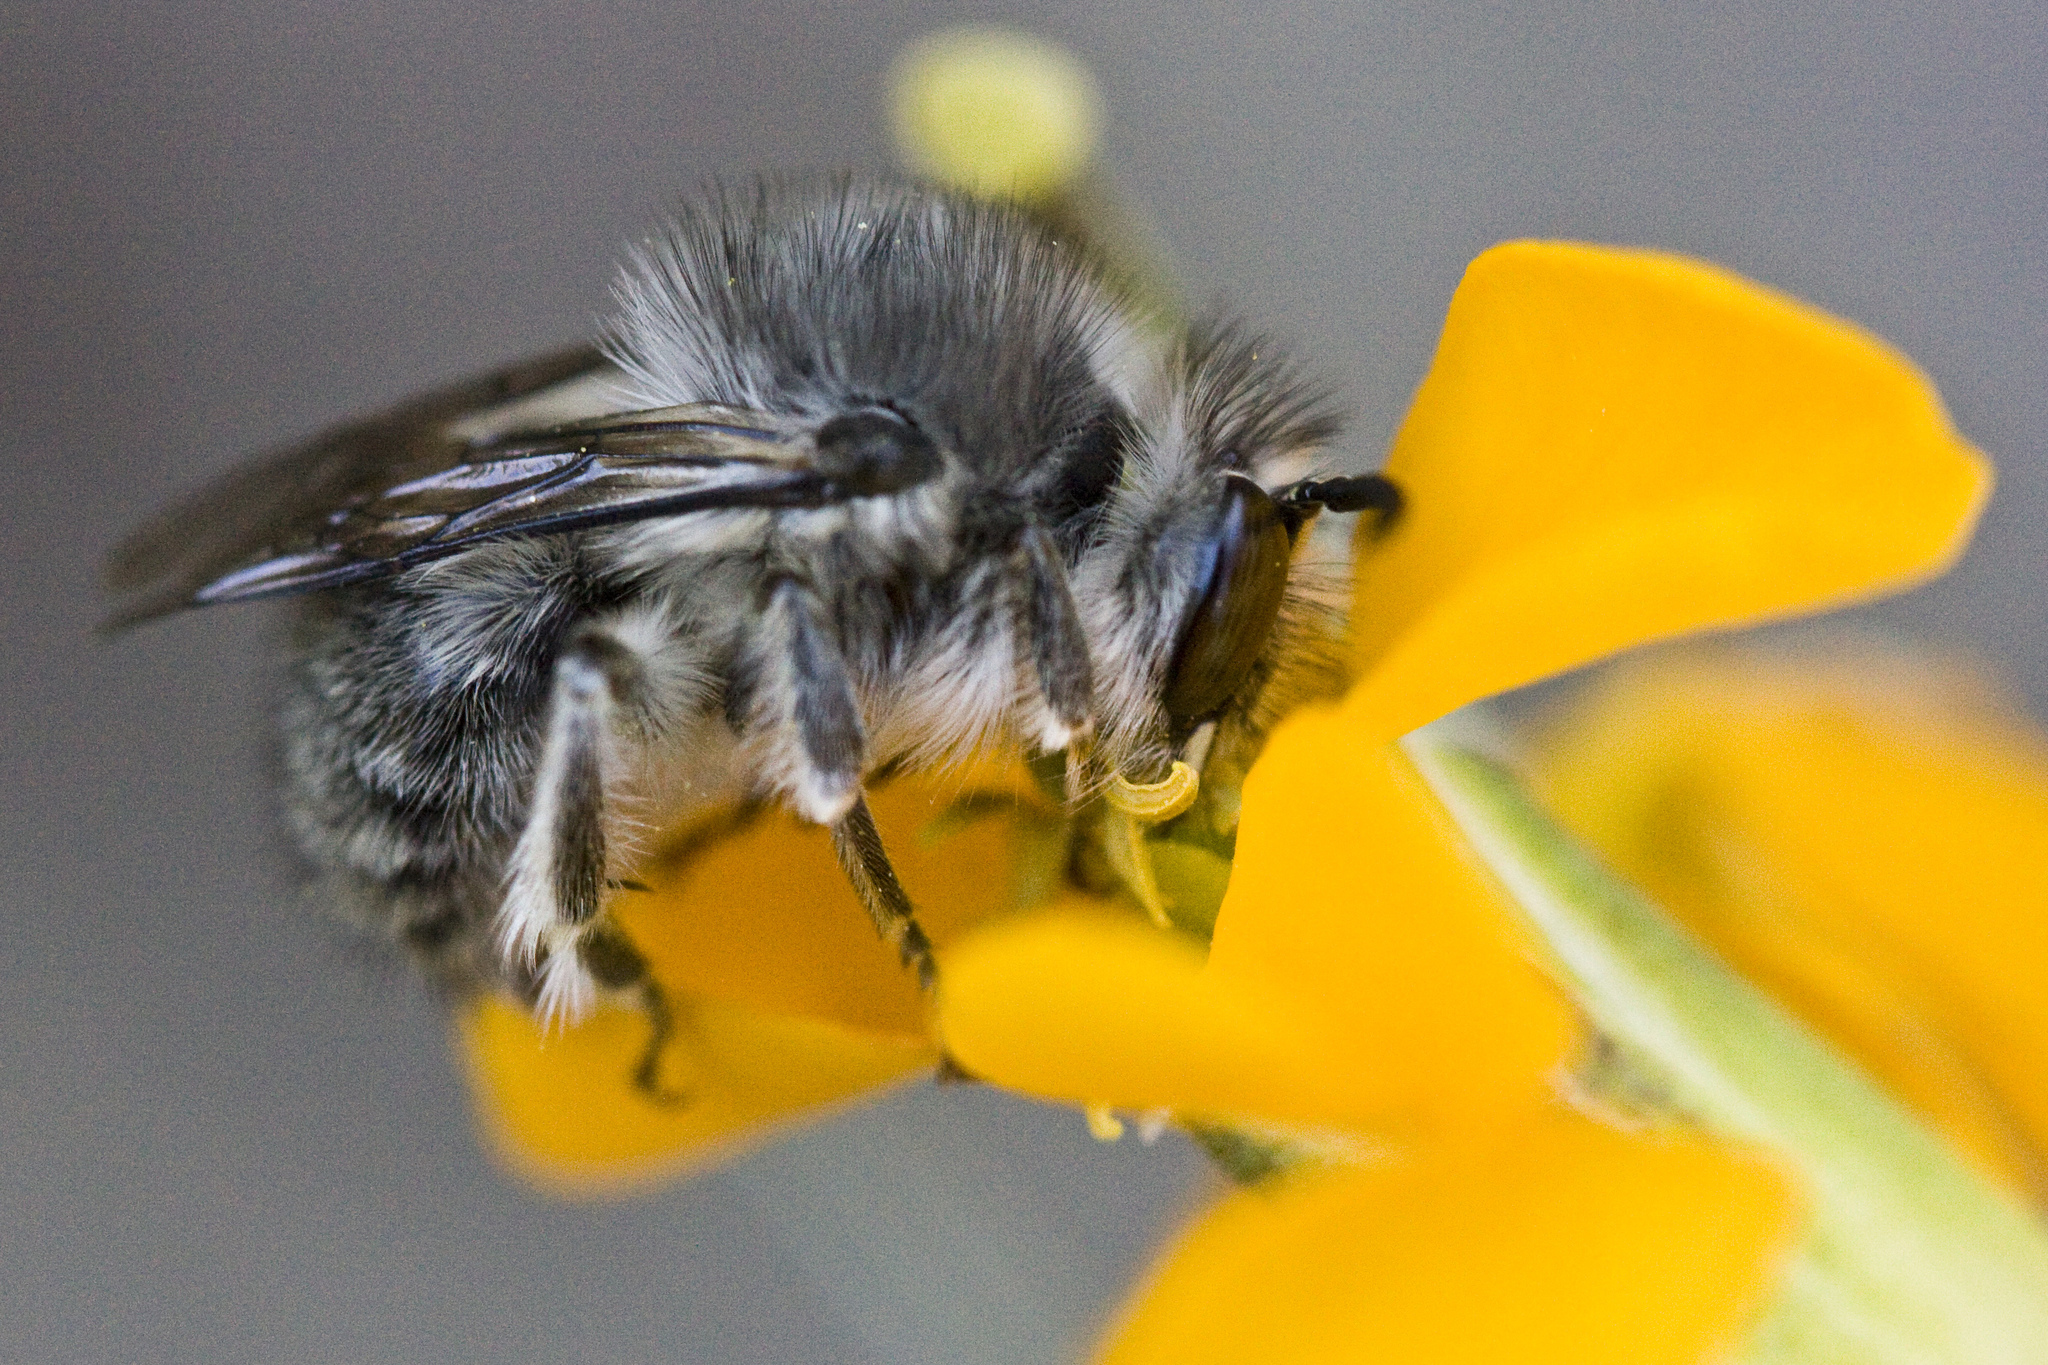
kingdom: Animalia
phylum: Arthropoda
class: Insecta
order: Hymenoptera
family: Apidae
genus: Anthophora
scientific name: Anthophora
